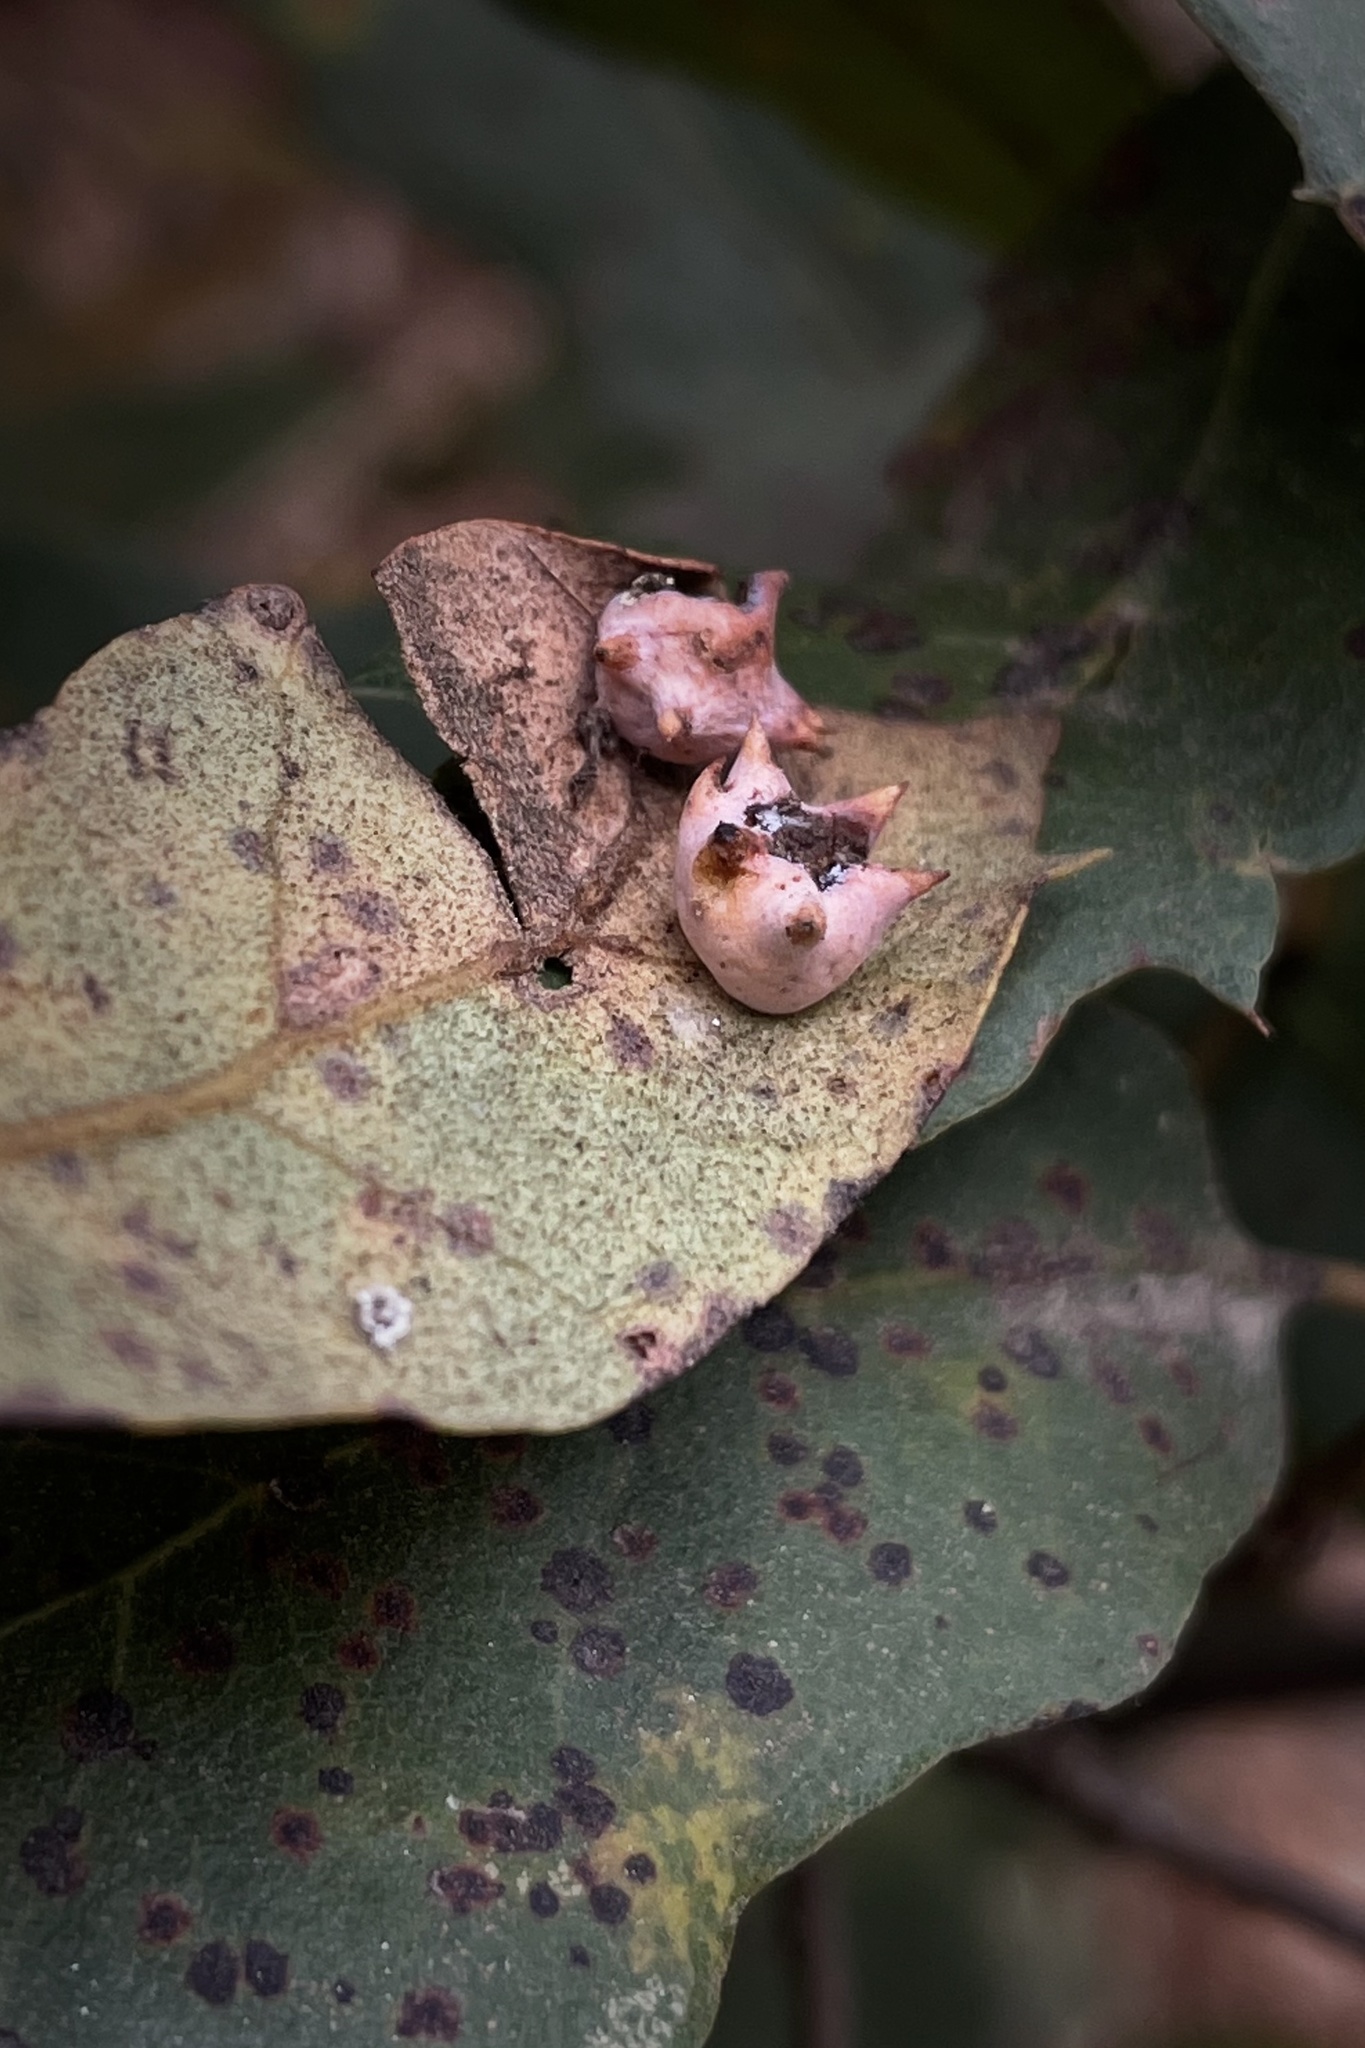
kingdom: Animalia
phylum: Arthropoda
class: Insecta
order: Hymenoptera
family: Cynipidae
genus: Cynips
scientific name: Cynips douglasi
